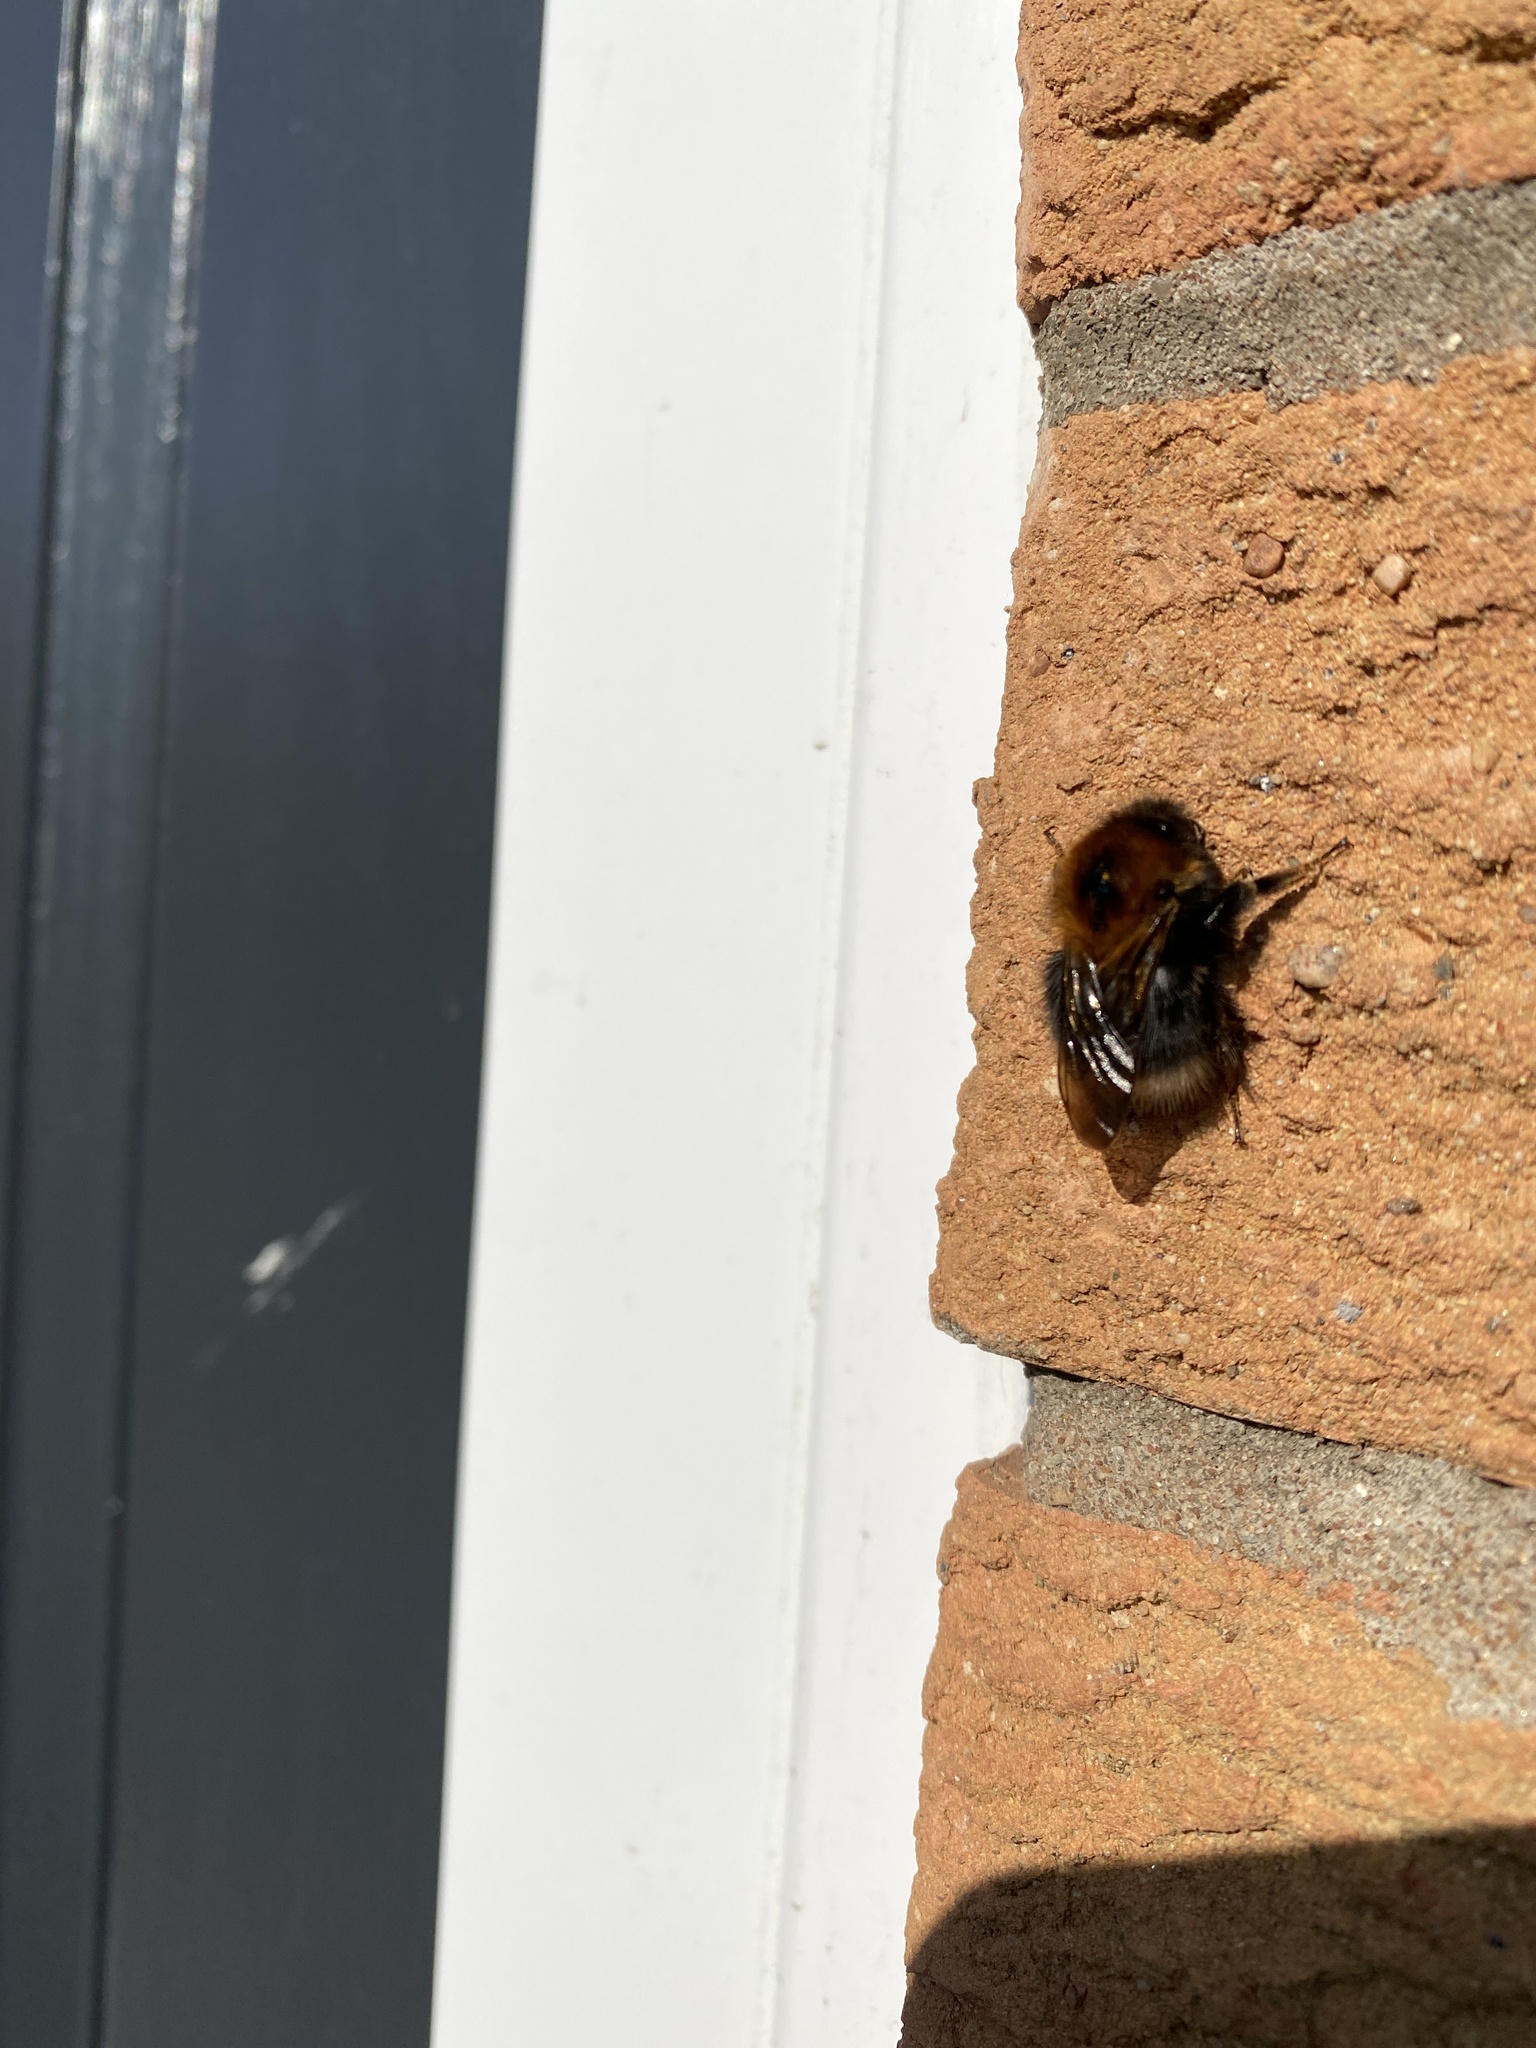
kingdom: Animalia
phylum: Arthropoda
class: Insecta
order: Hymenoptera
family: Apidae
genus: Bombus
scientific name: Bombus hypnorum
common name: New garden bumblebee
